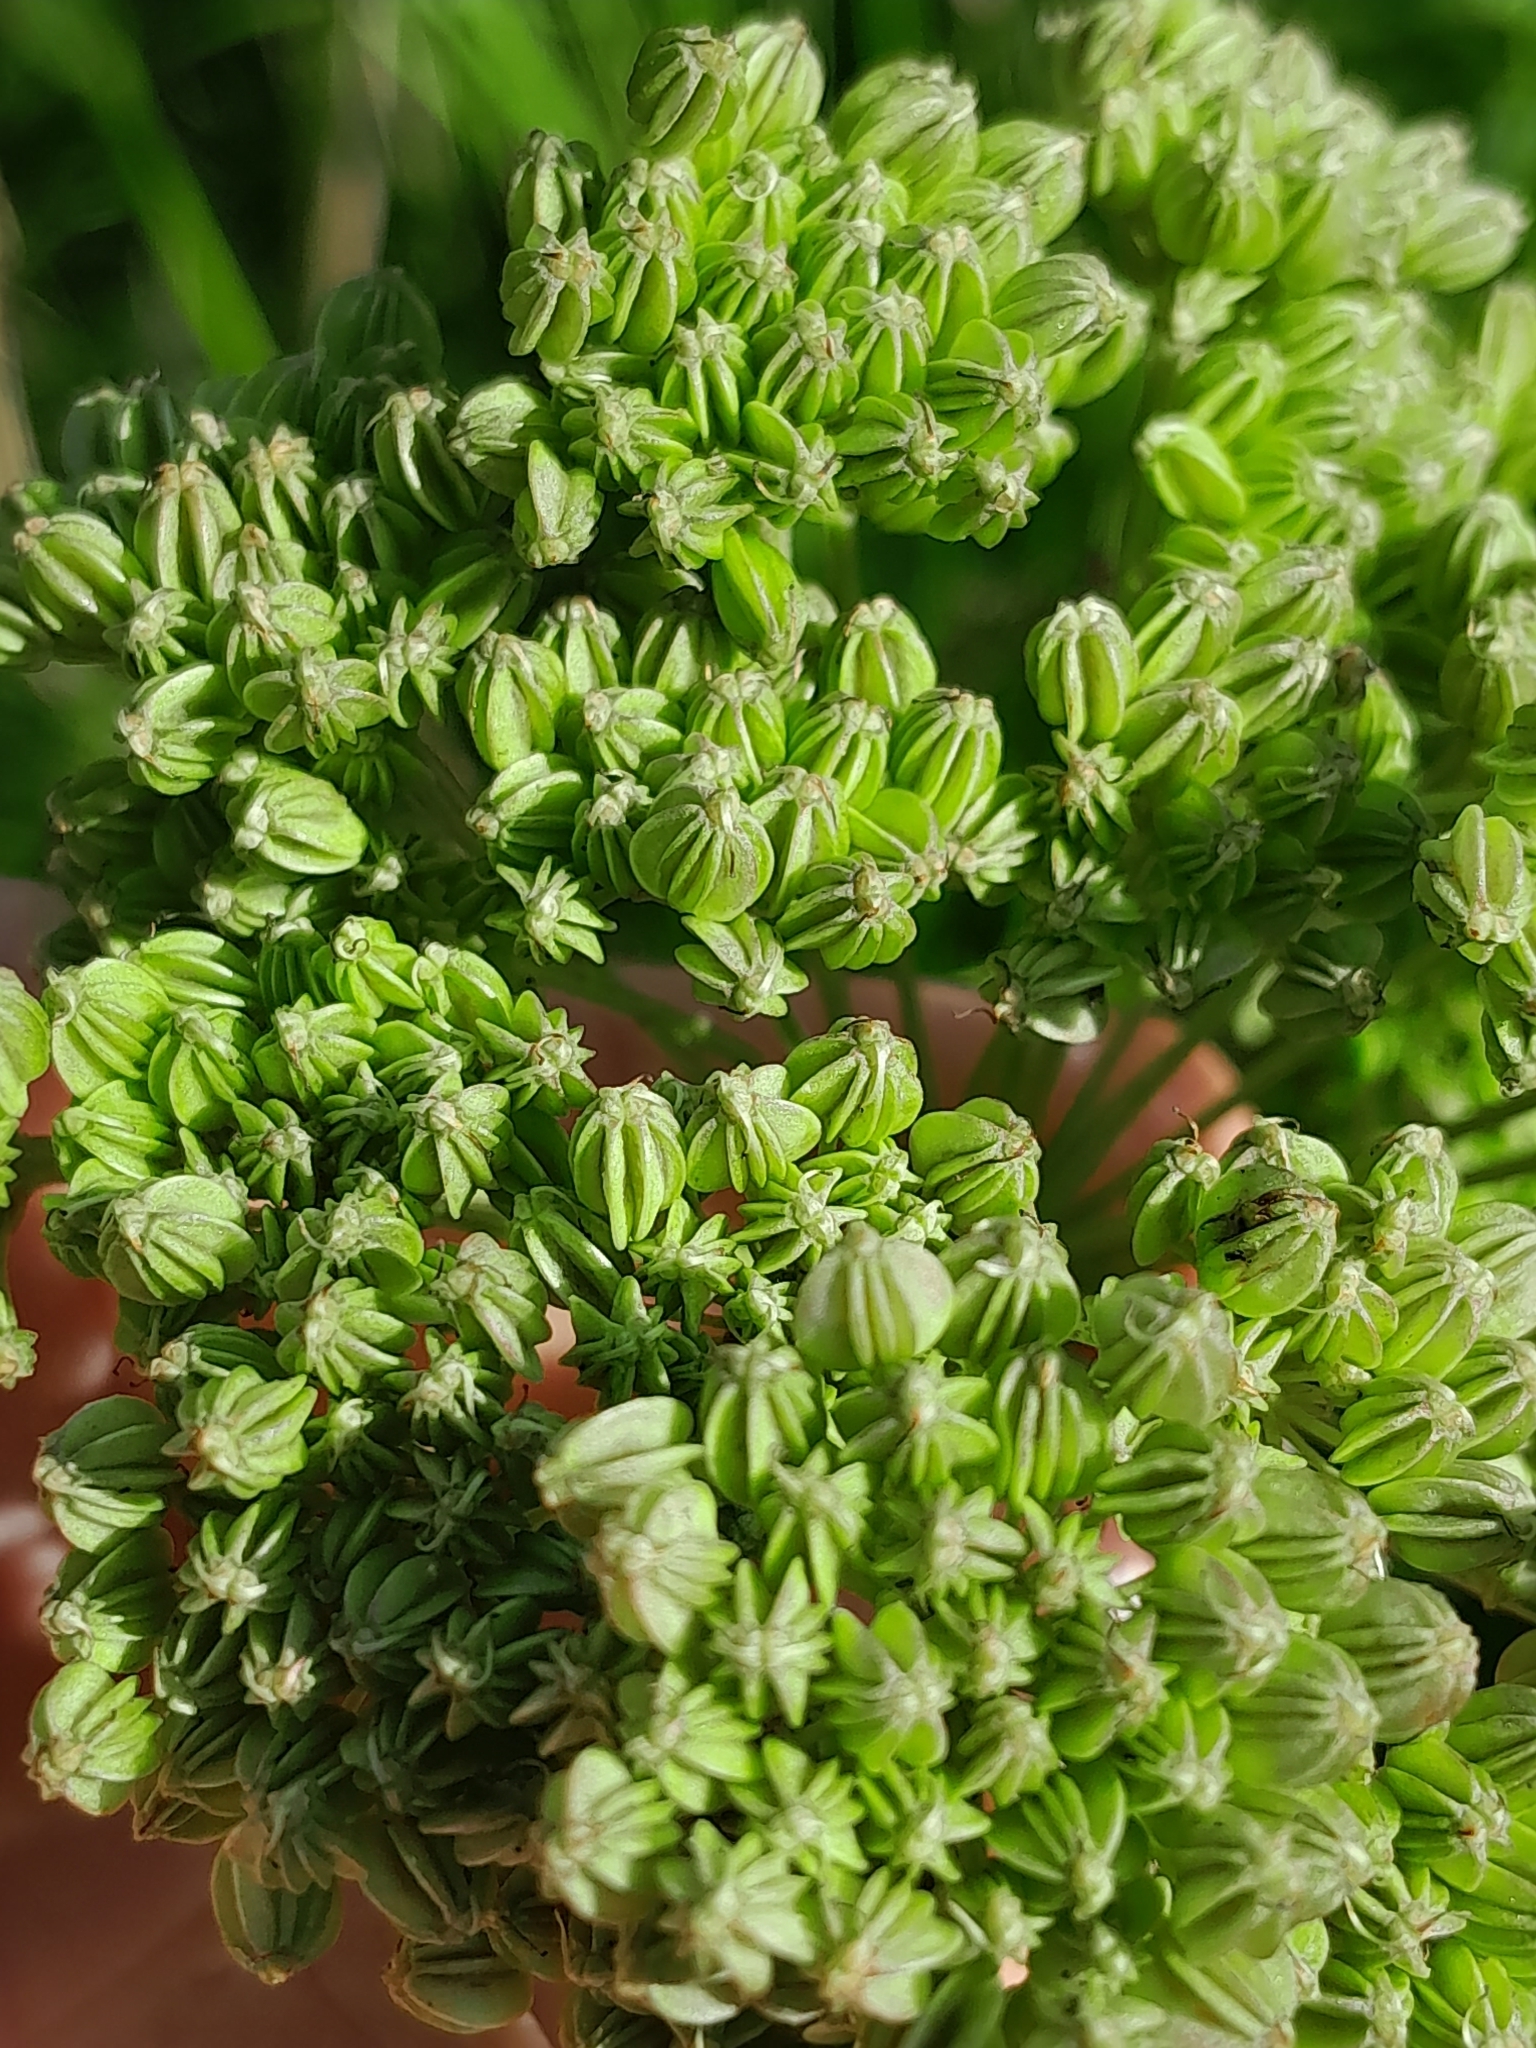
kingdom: Plantae
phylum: Tracheophyta
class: Magnoliopsida
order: Apiales
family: Apiaceae
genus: Selinum
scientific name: Selinum carvifolia
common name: Cambridge milk-parsley
